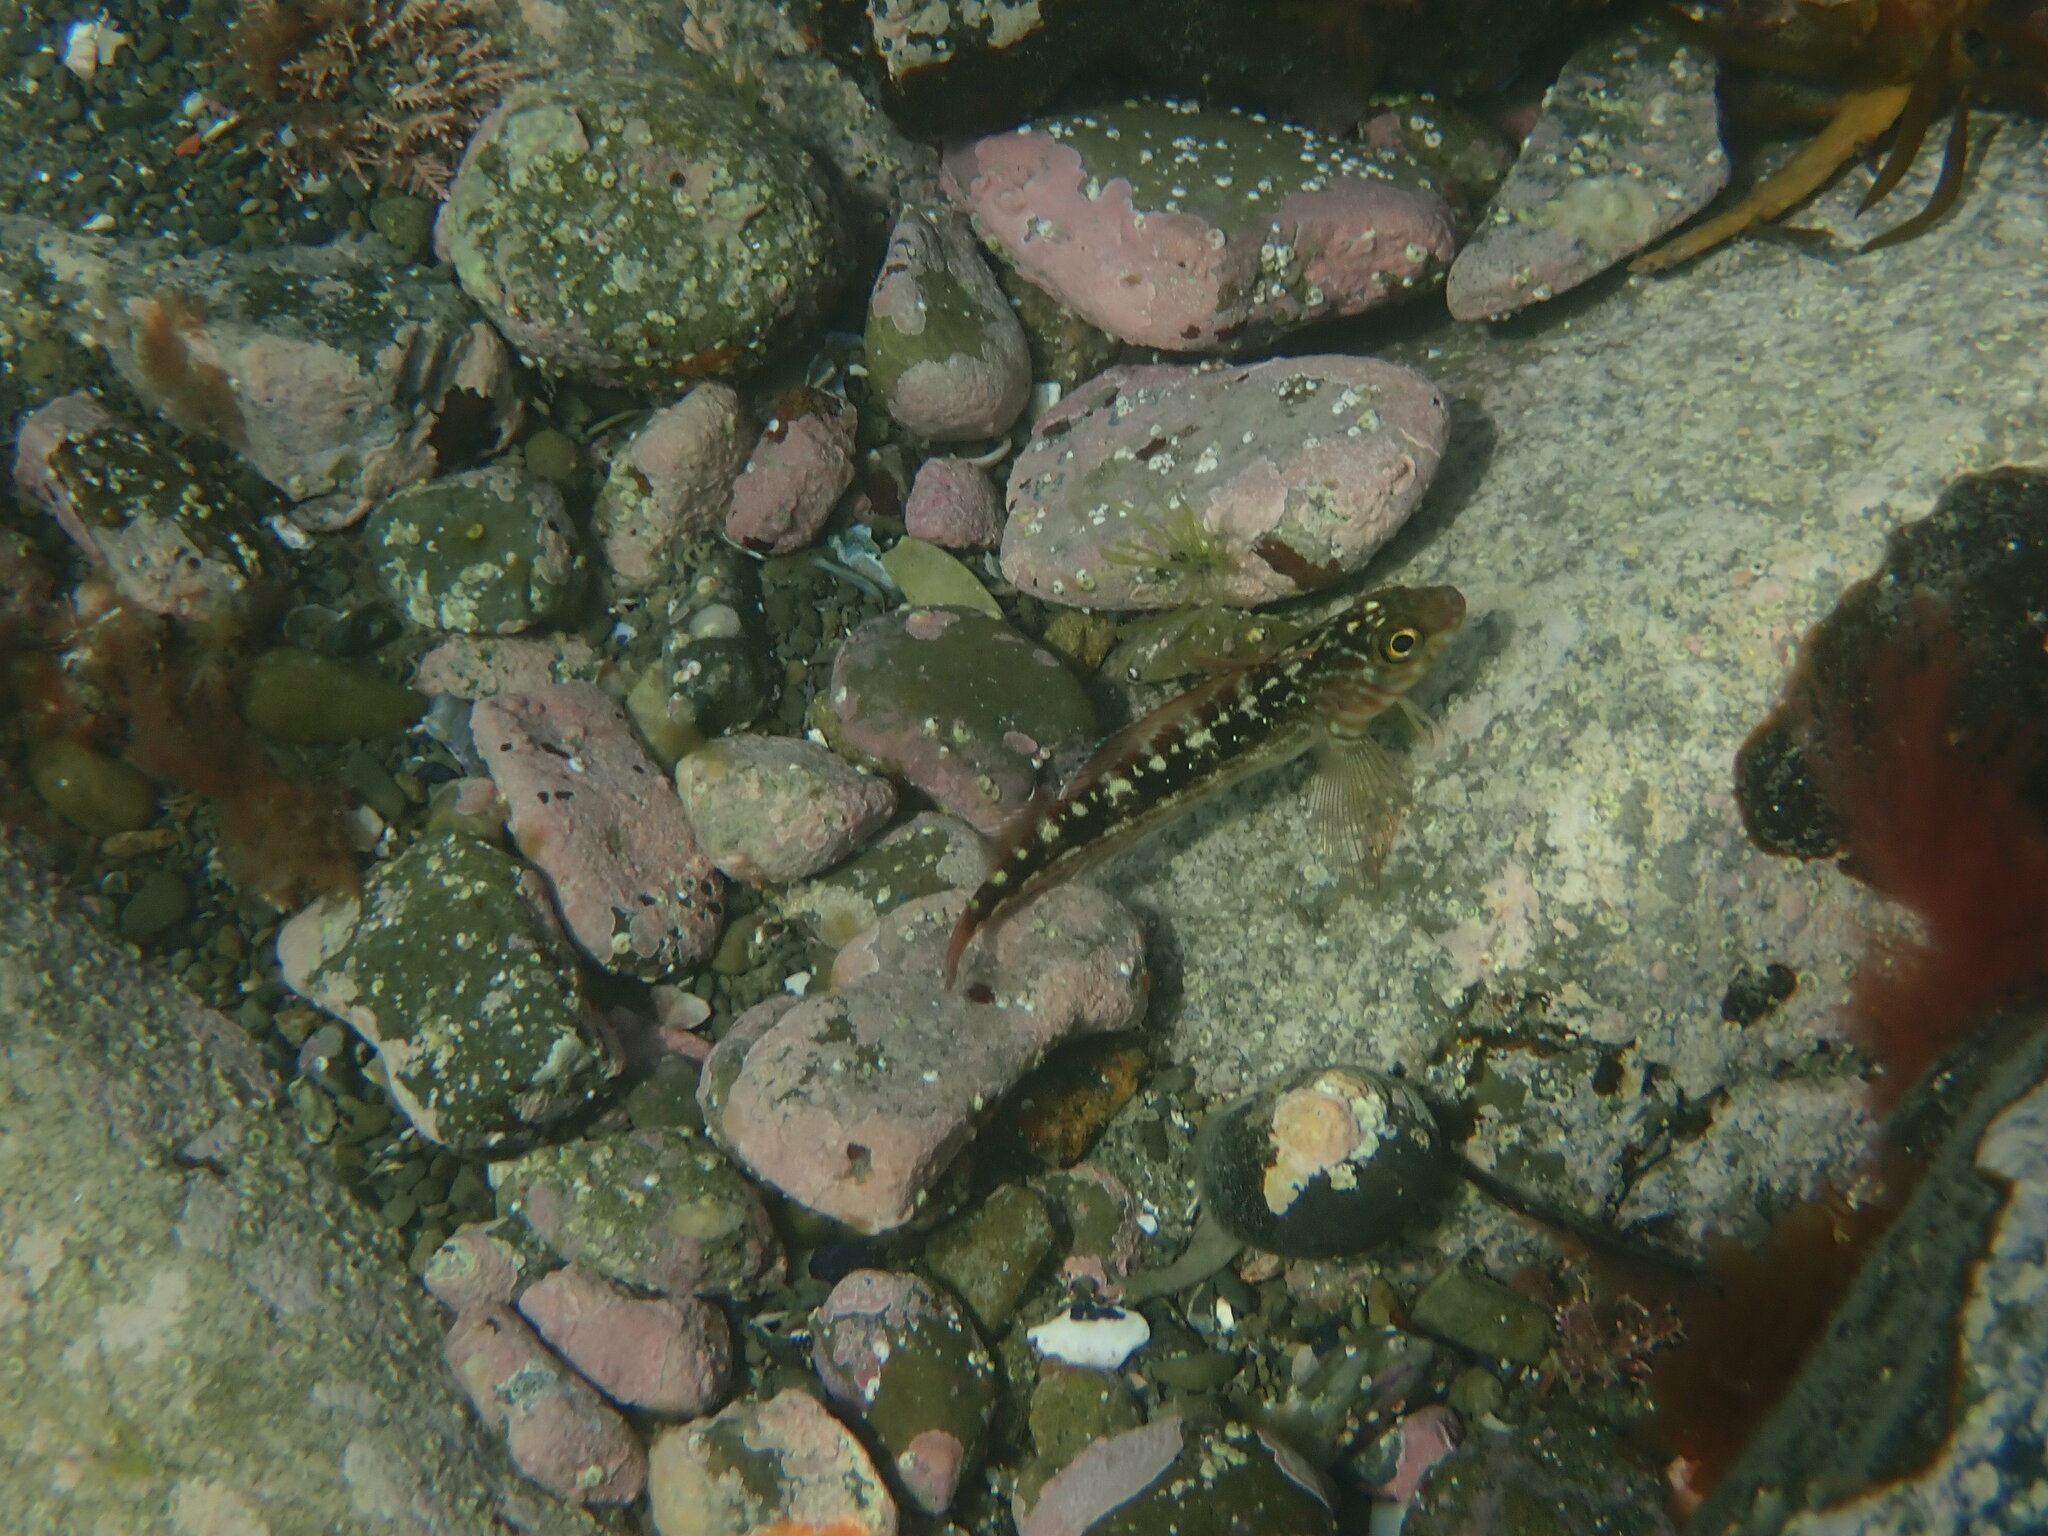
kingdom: Animalia
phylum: Chordata
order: Perciformes
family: Tripterygiidae
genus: Forsterygion
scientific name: Forsterygion varium
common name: Variable triplefin
